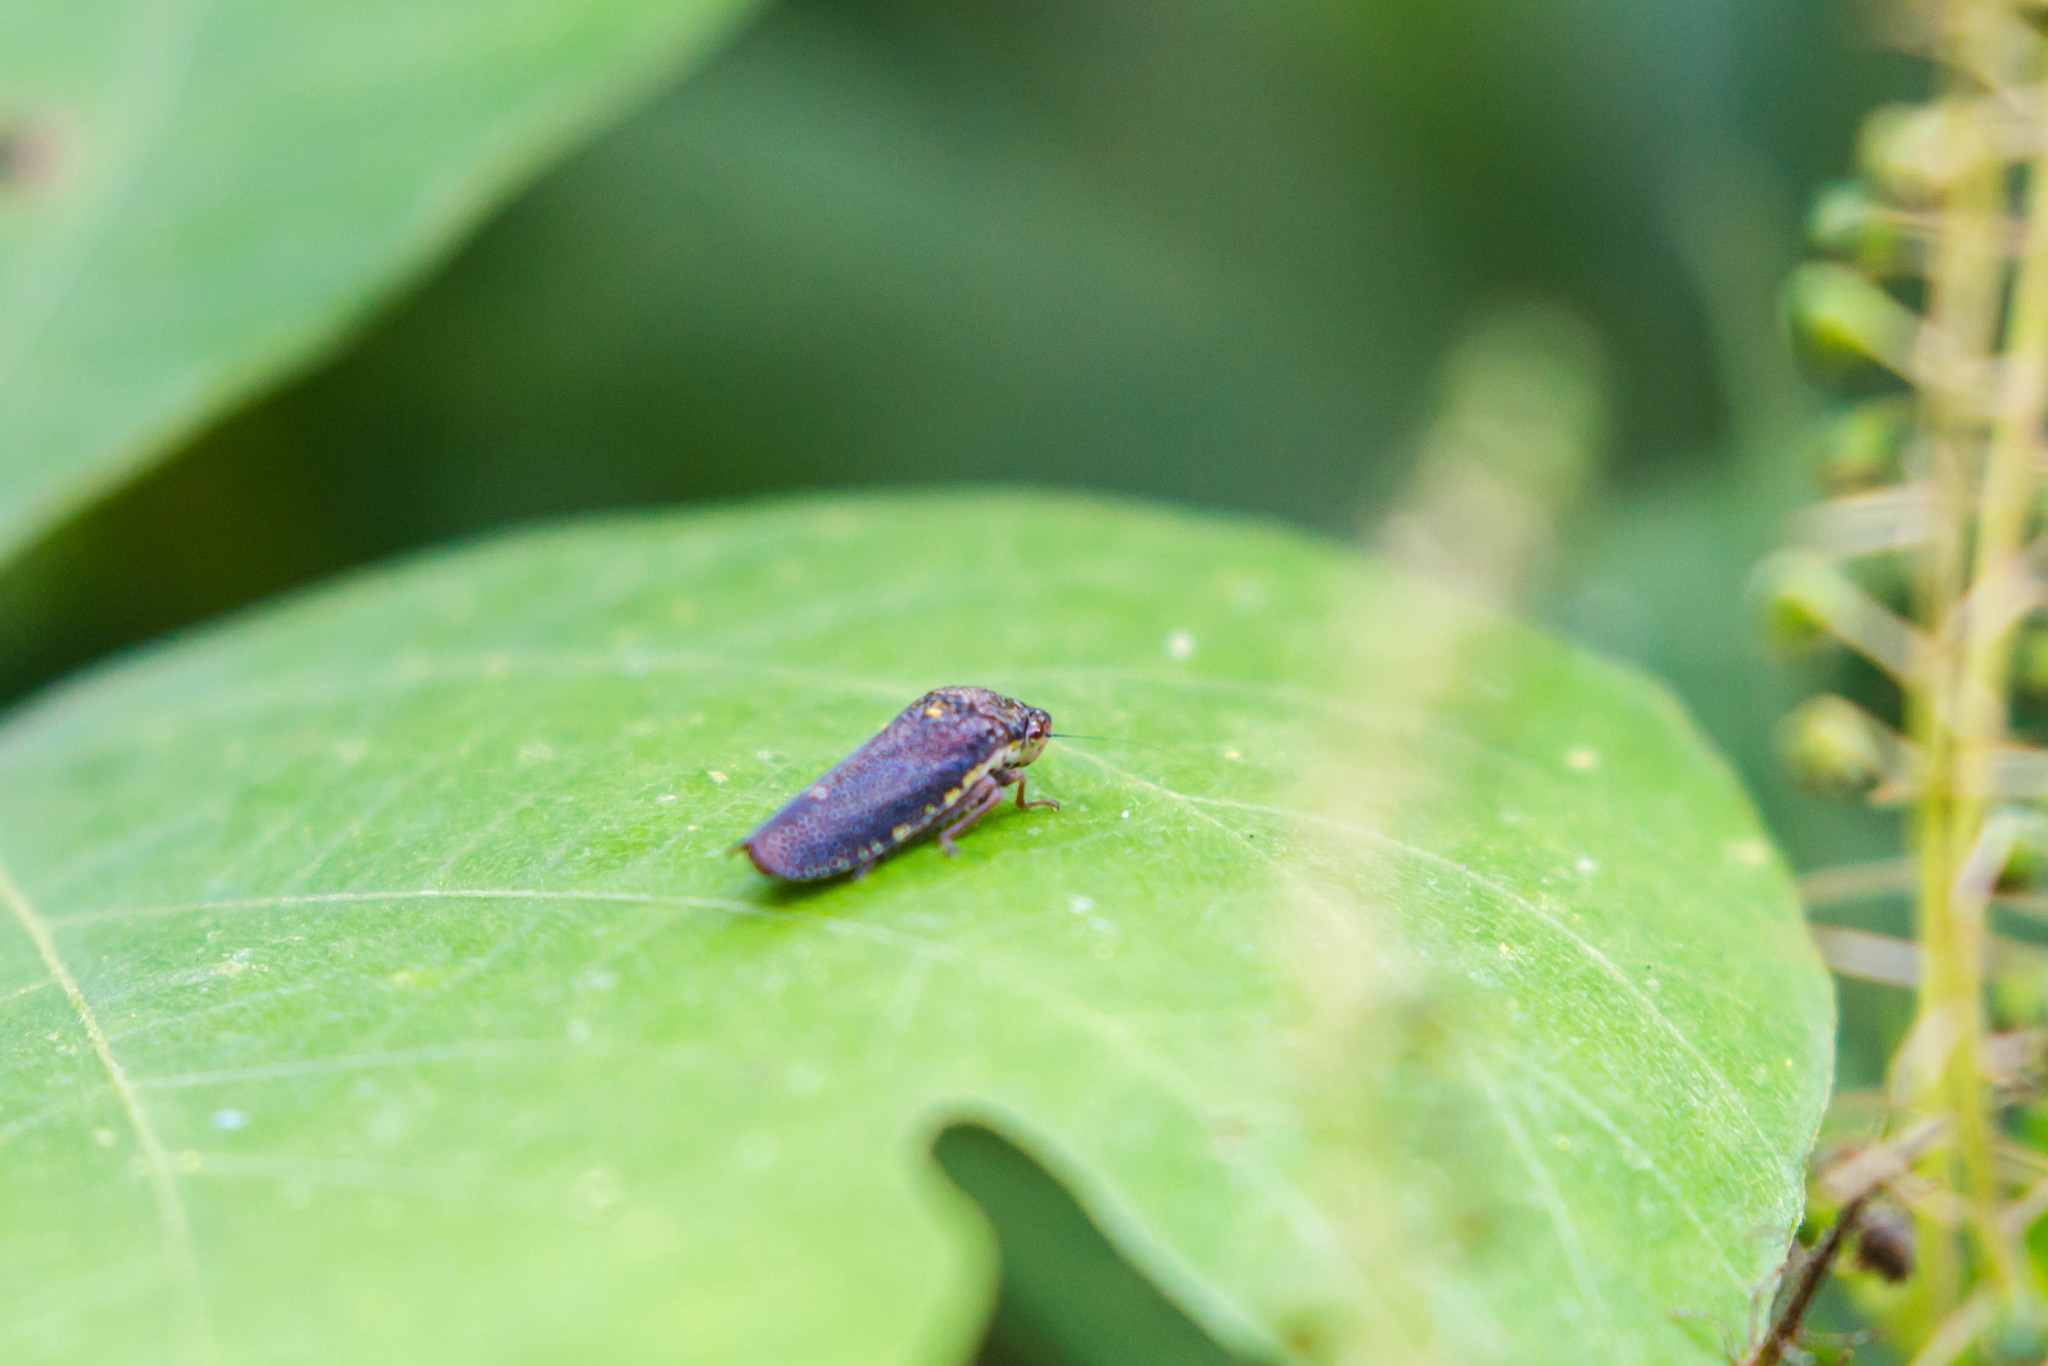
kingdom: Animalia
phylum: Arthropoda
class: Insecta
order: Hemiptera
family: Cicadellidae
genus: Paraulacizes
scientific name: Paraulacizes irrorata
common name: Speckled sharpshooter
